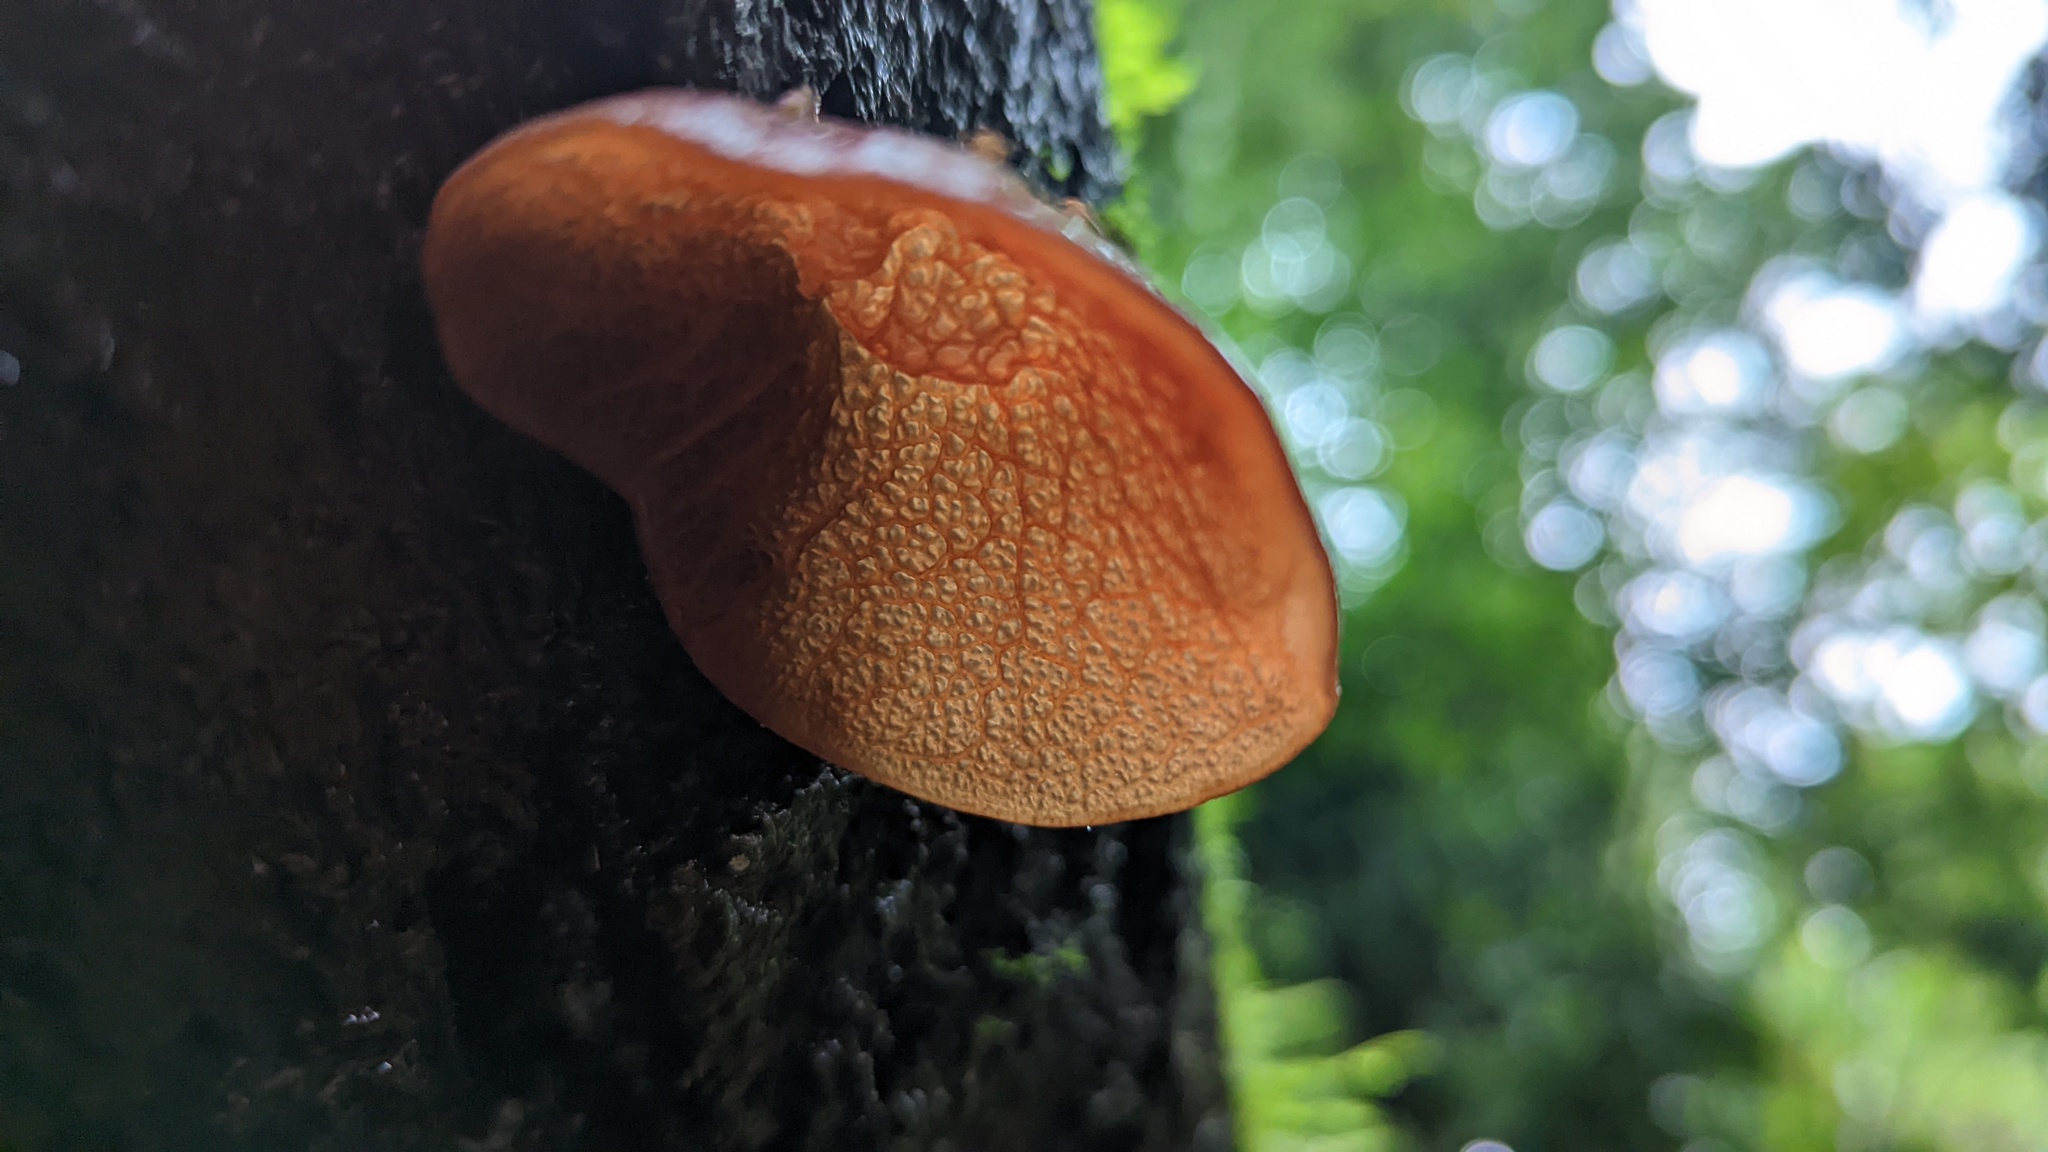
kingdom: Fungi
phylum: Basidiomycota
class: Agaricomycetes
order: Auriculariales
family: Auriculariaceae
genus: Auricularia
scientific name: Auricularia delicata
